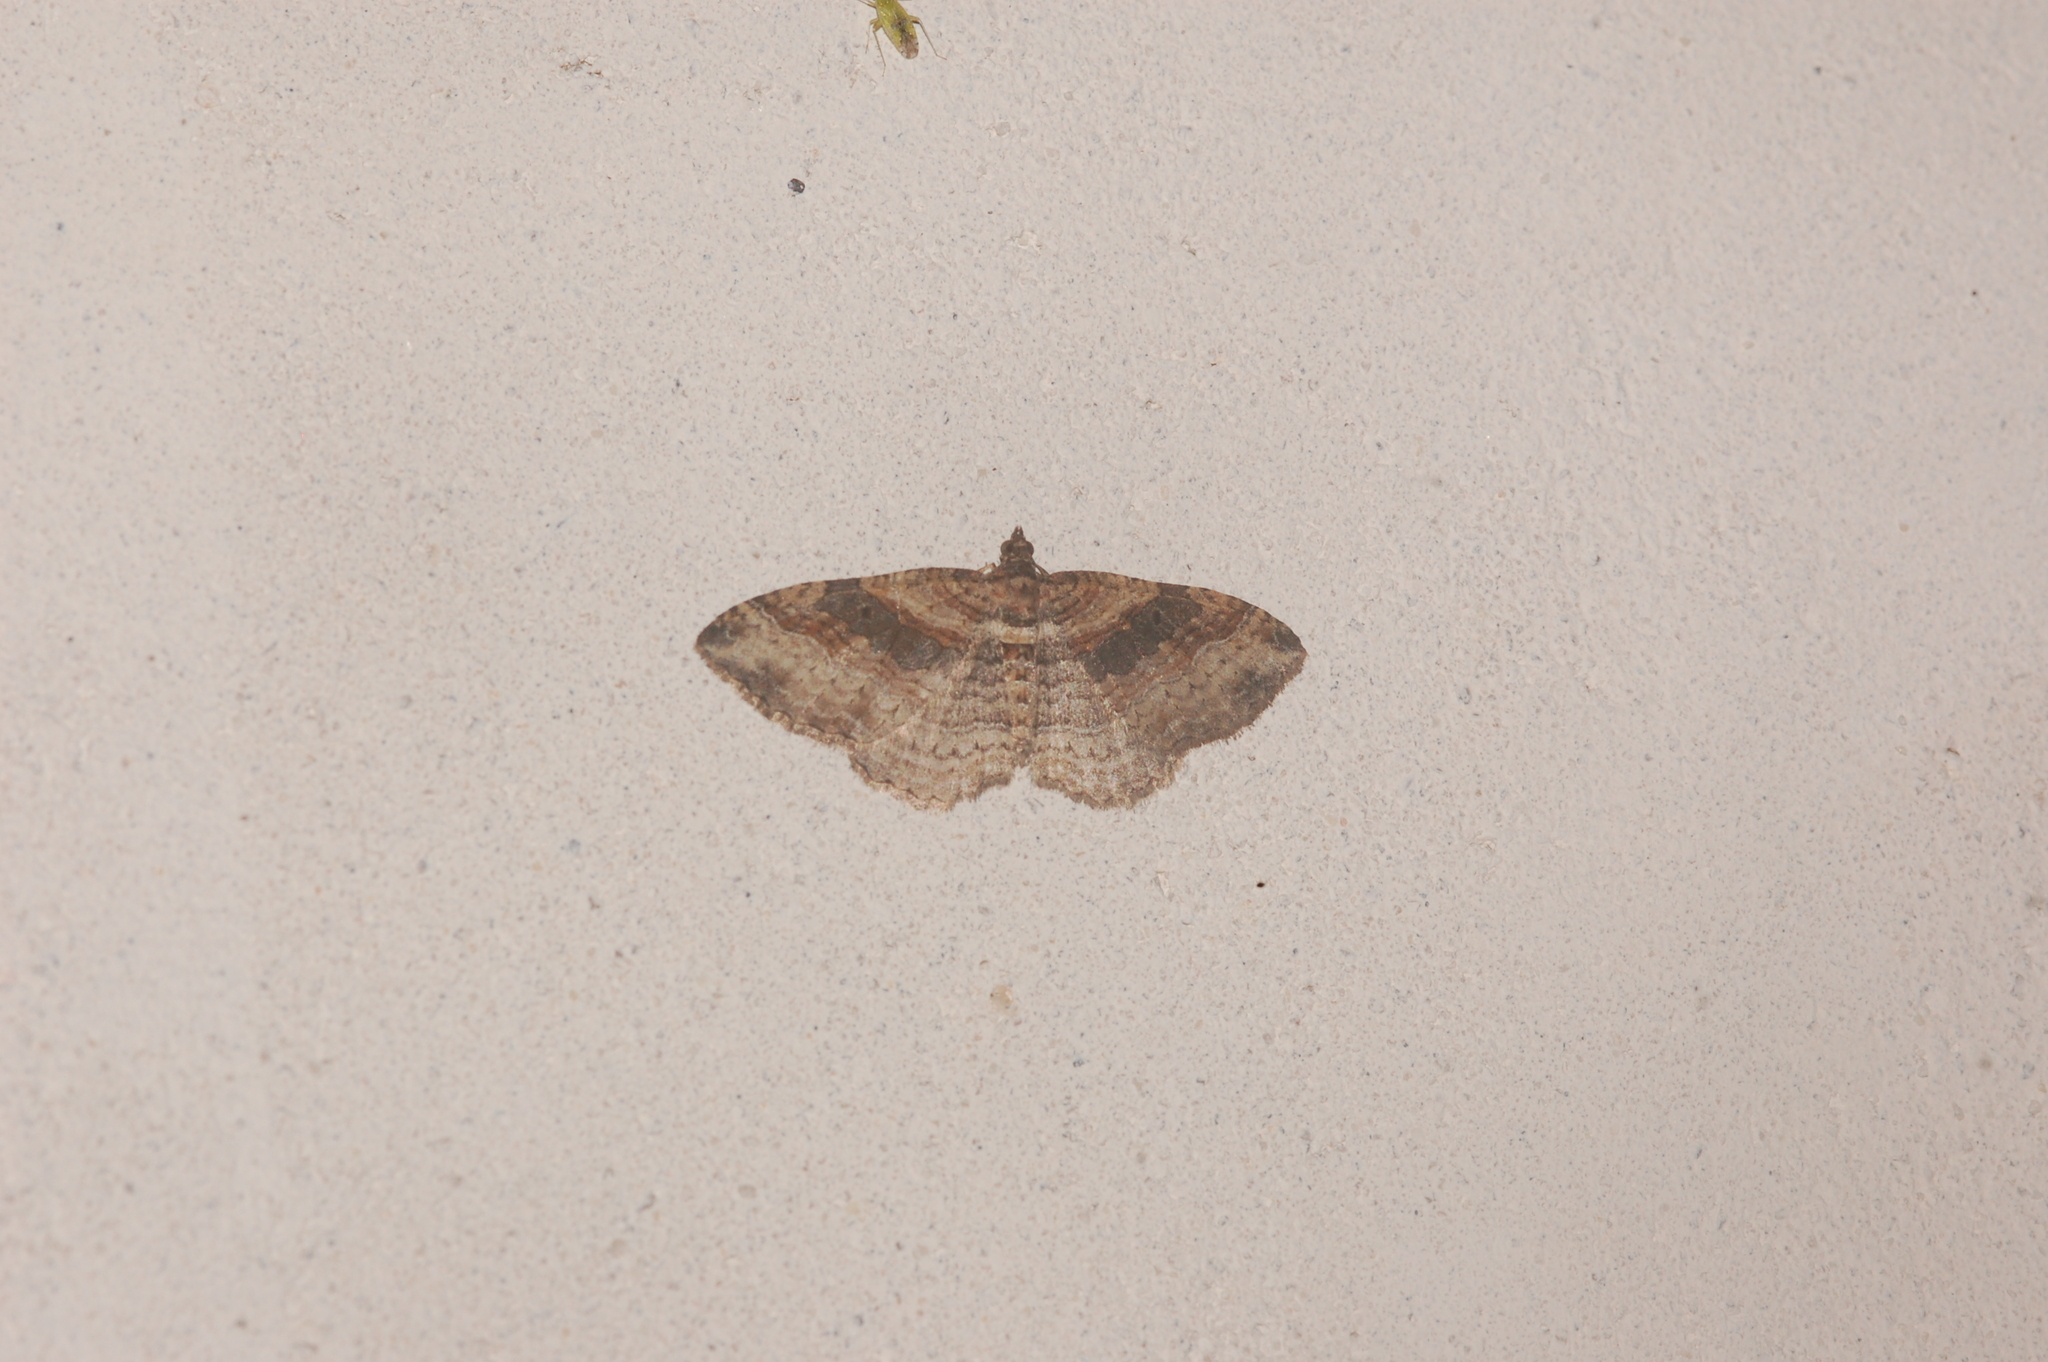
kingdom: Animalia
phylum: Arthropoda
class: Insecta
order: Lepidoptera
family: Geometridae
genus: Costaconvexa
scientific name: Costaconvexa centrostrigaria
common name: Bent-line carpet
